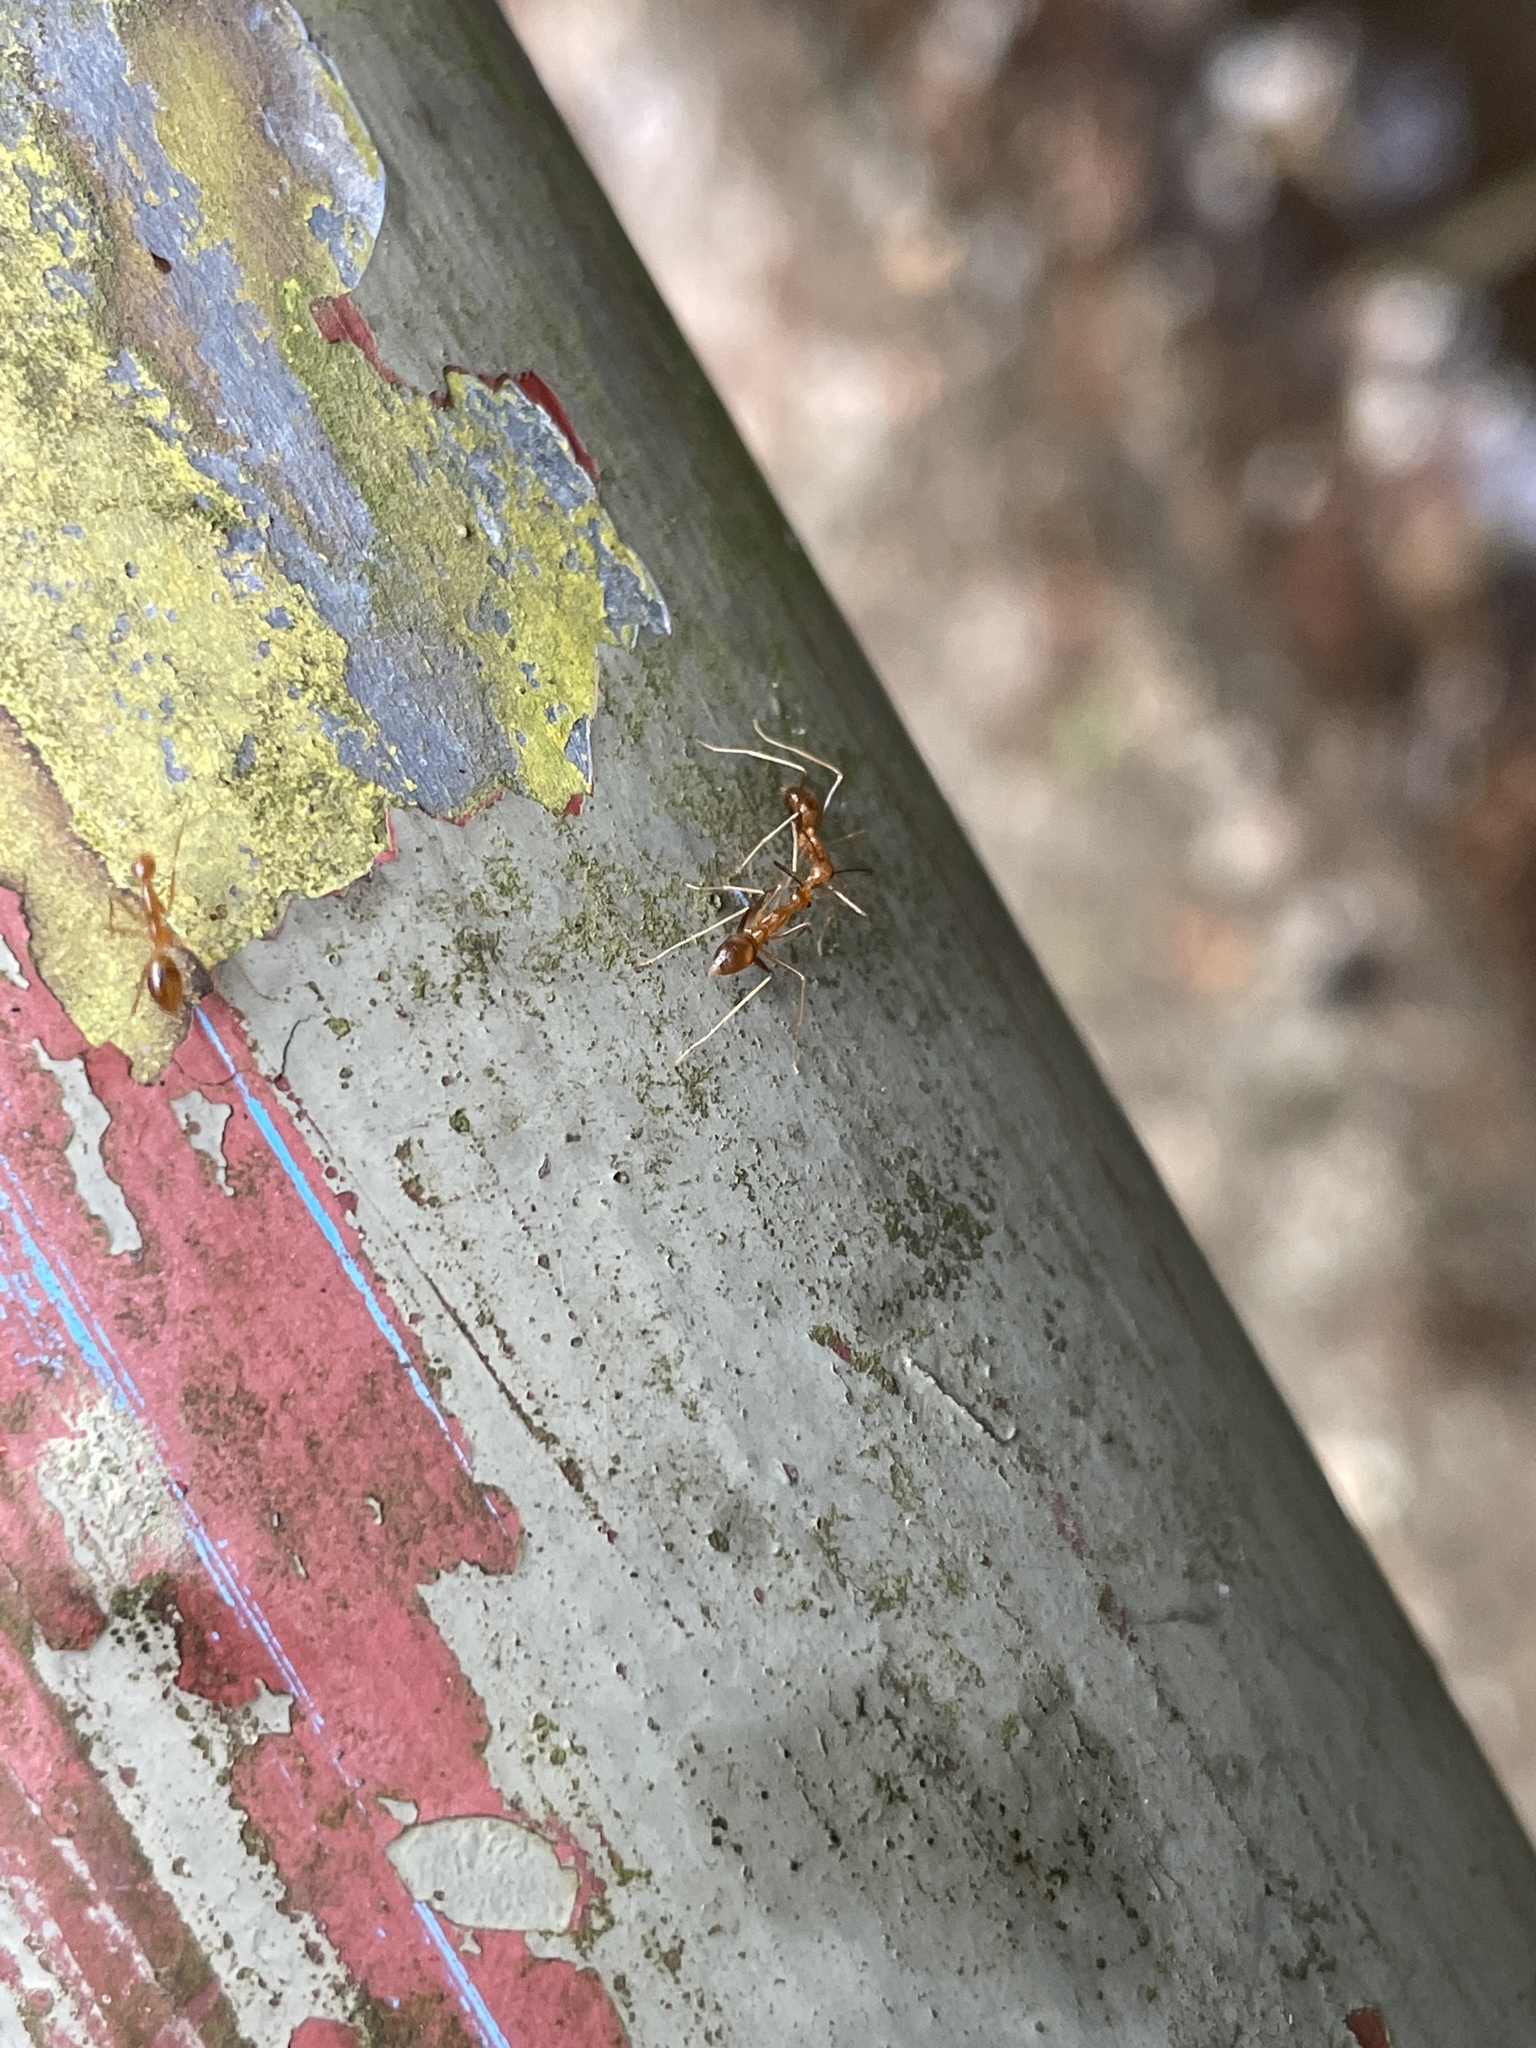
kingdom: Animalia
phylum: Arthropoda
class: Insecta
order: Hymenoptera
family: Formicidae
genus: Anoplolepis
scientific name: Anoplolepis gracilipes
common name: Ant
